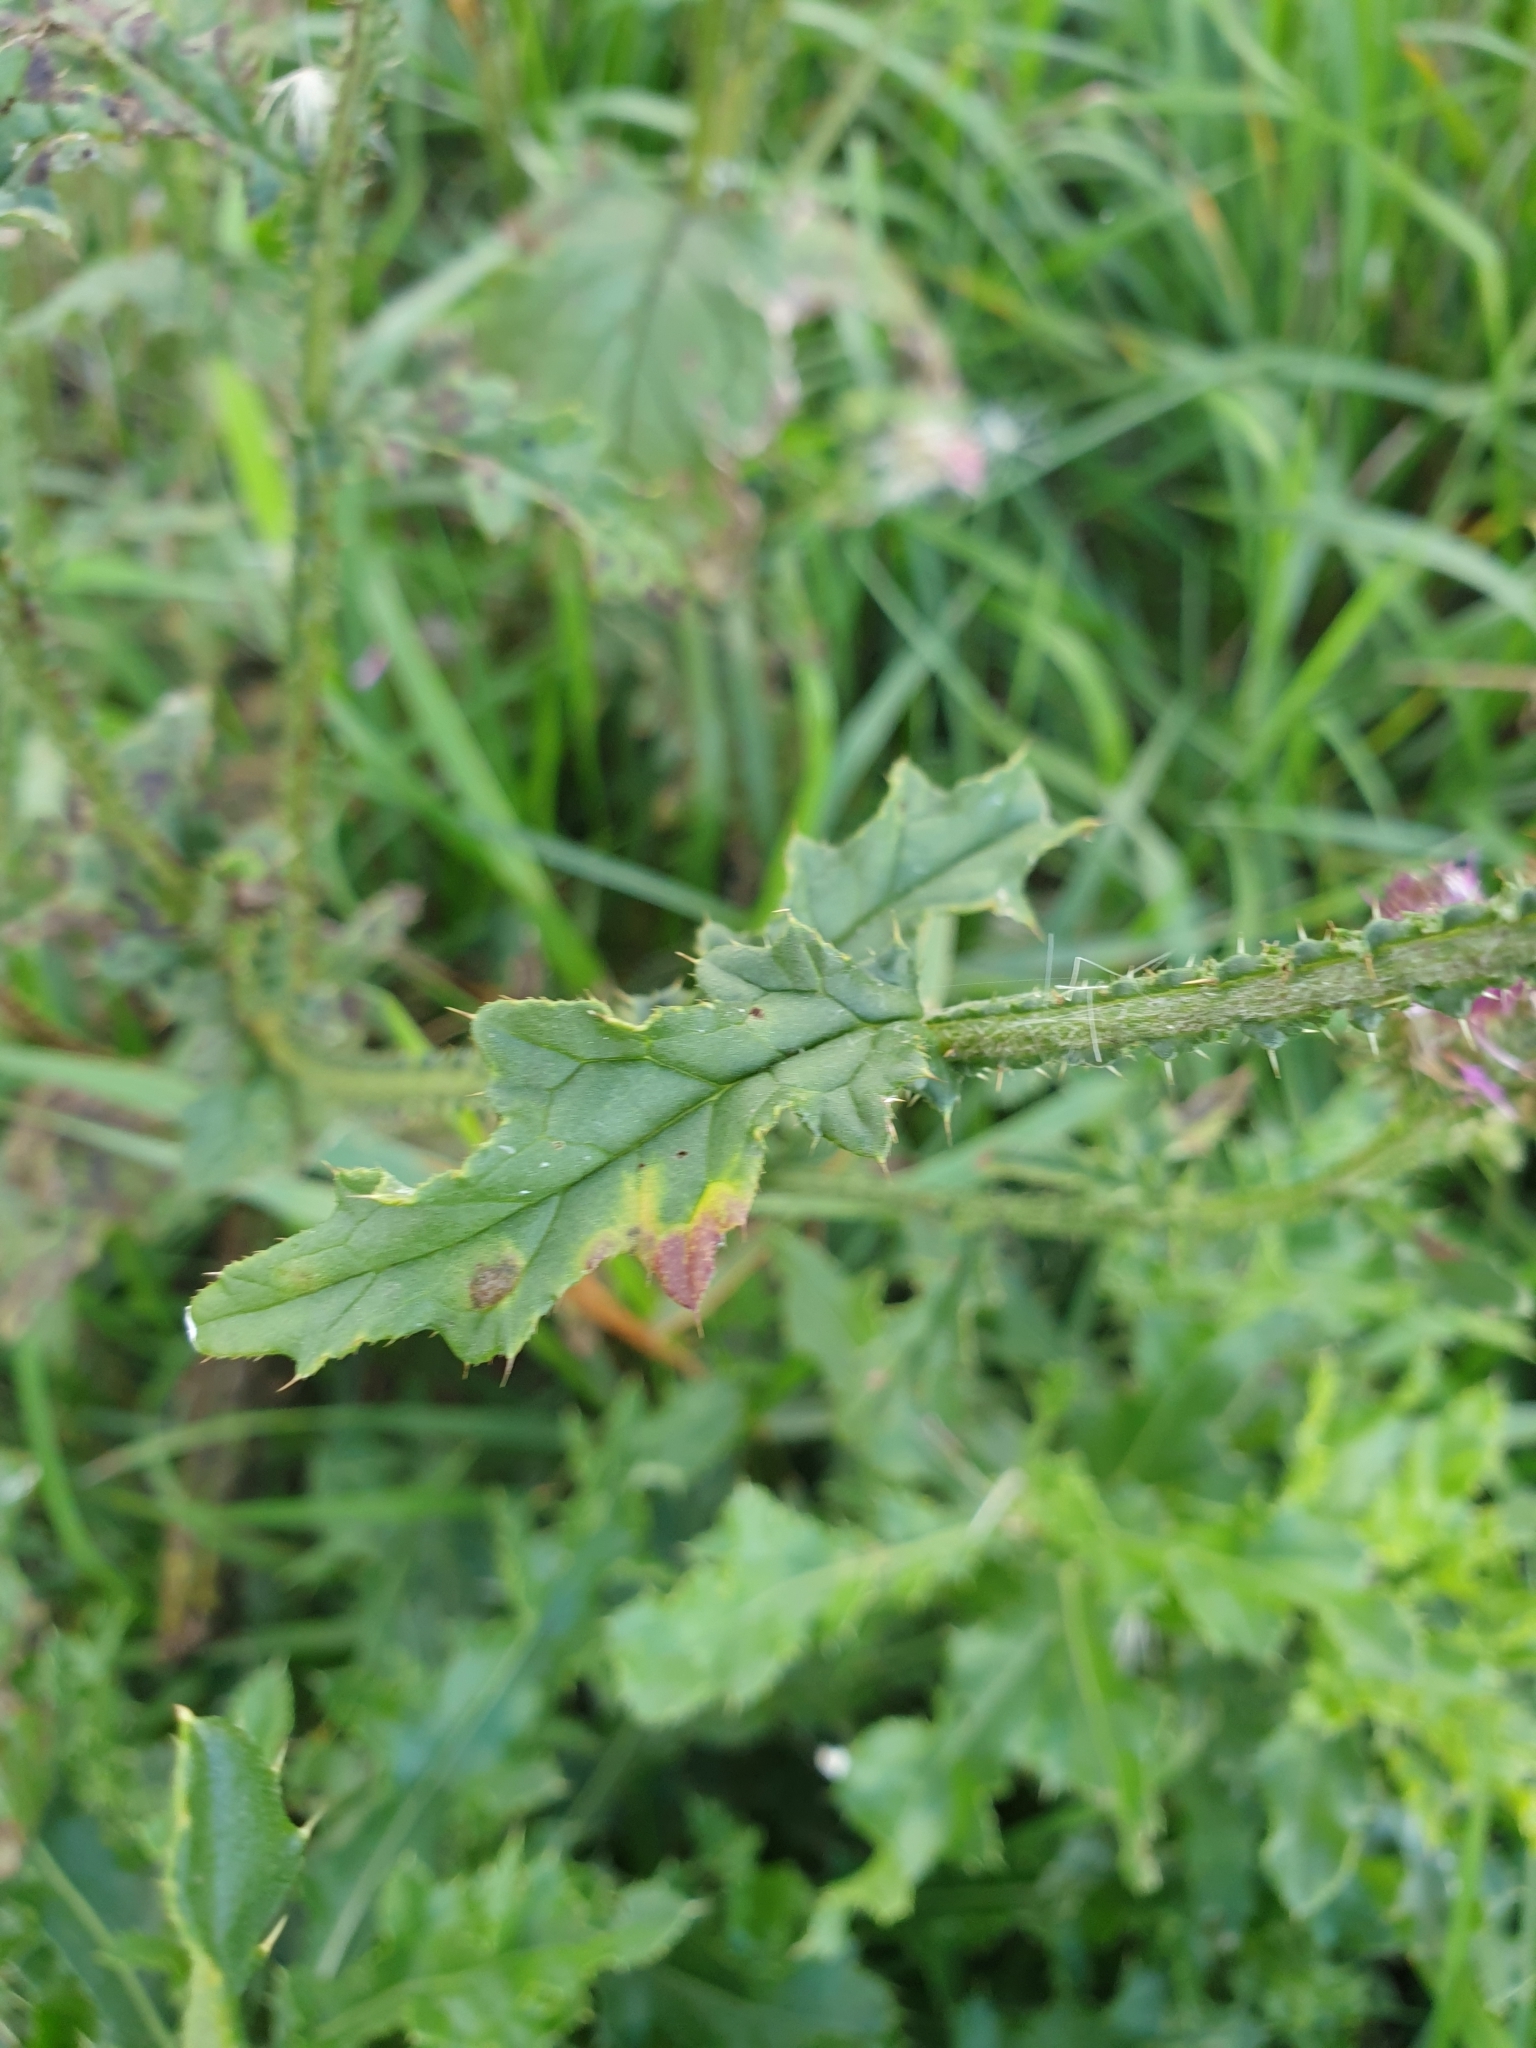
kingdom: Plantae
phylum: Tracheophyta
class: Magnoliopsida
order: Asterales
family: Asteraceae
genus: Carduus
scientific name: Carduus crispus
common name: Welted thistle
